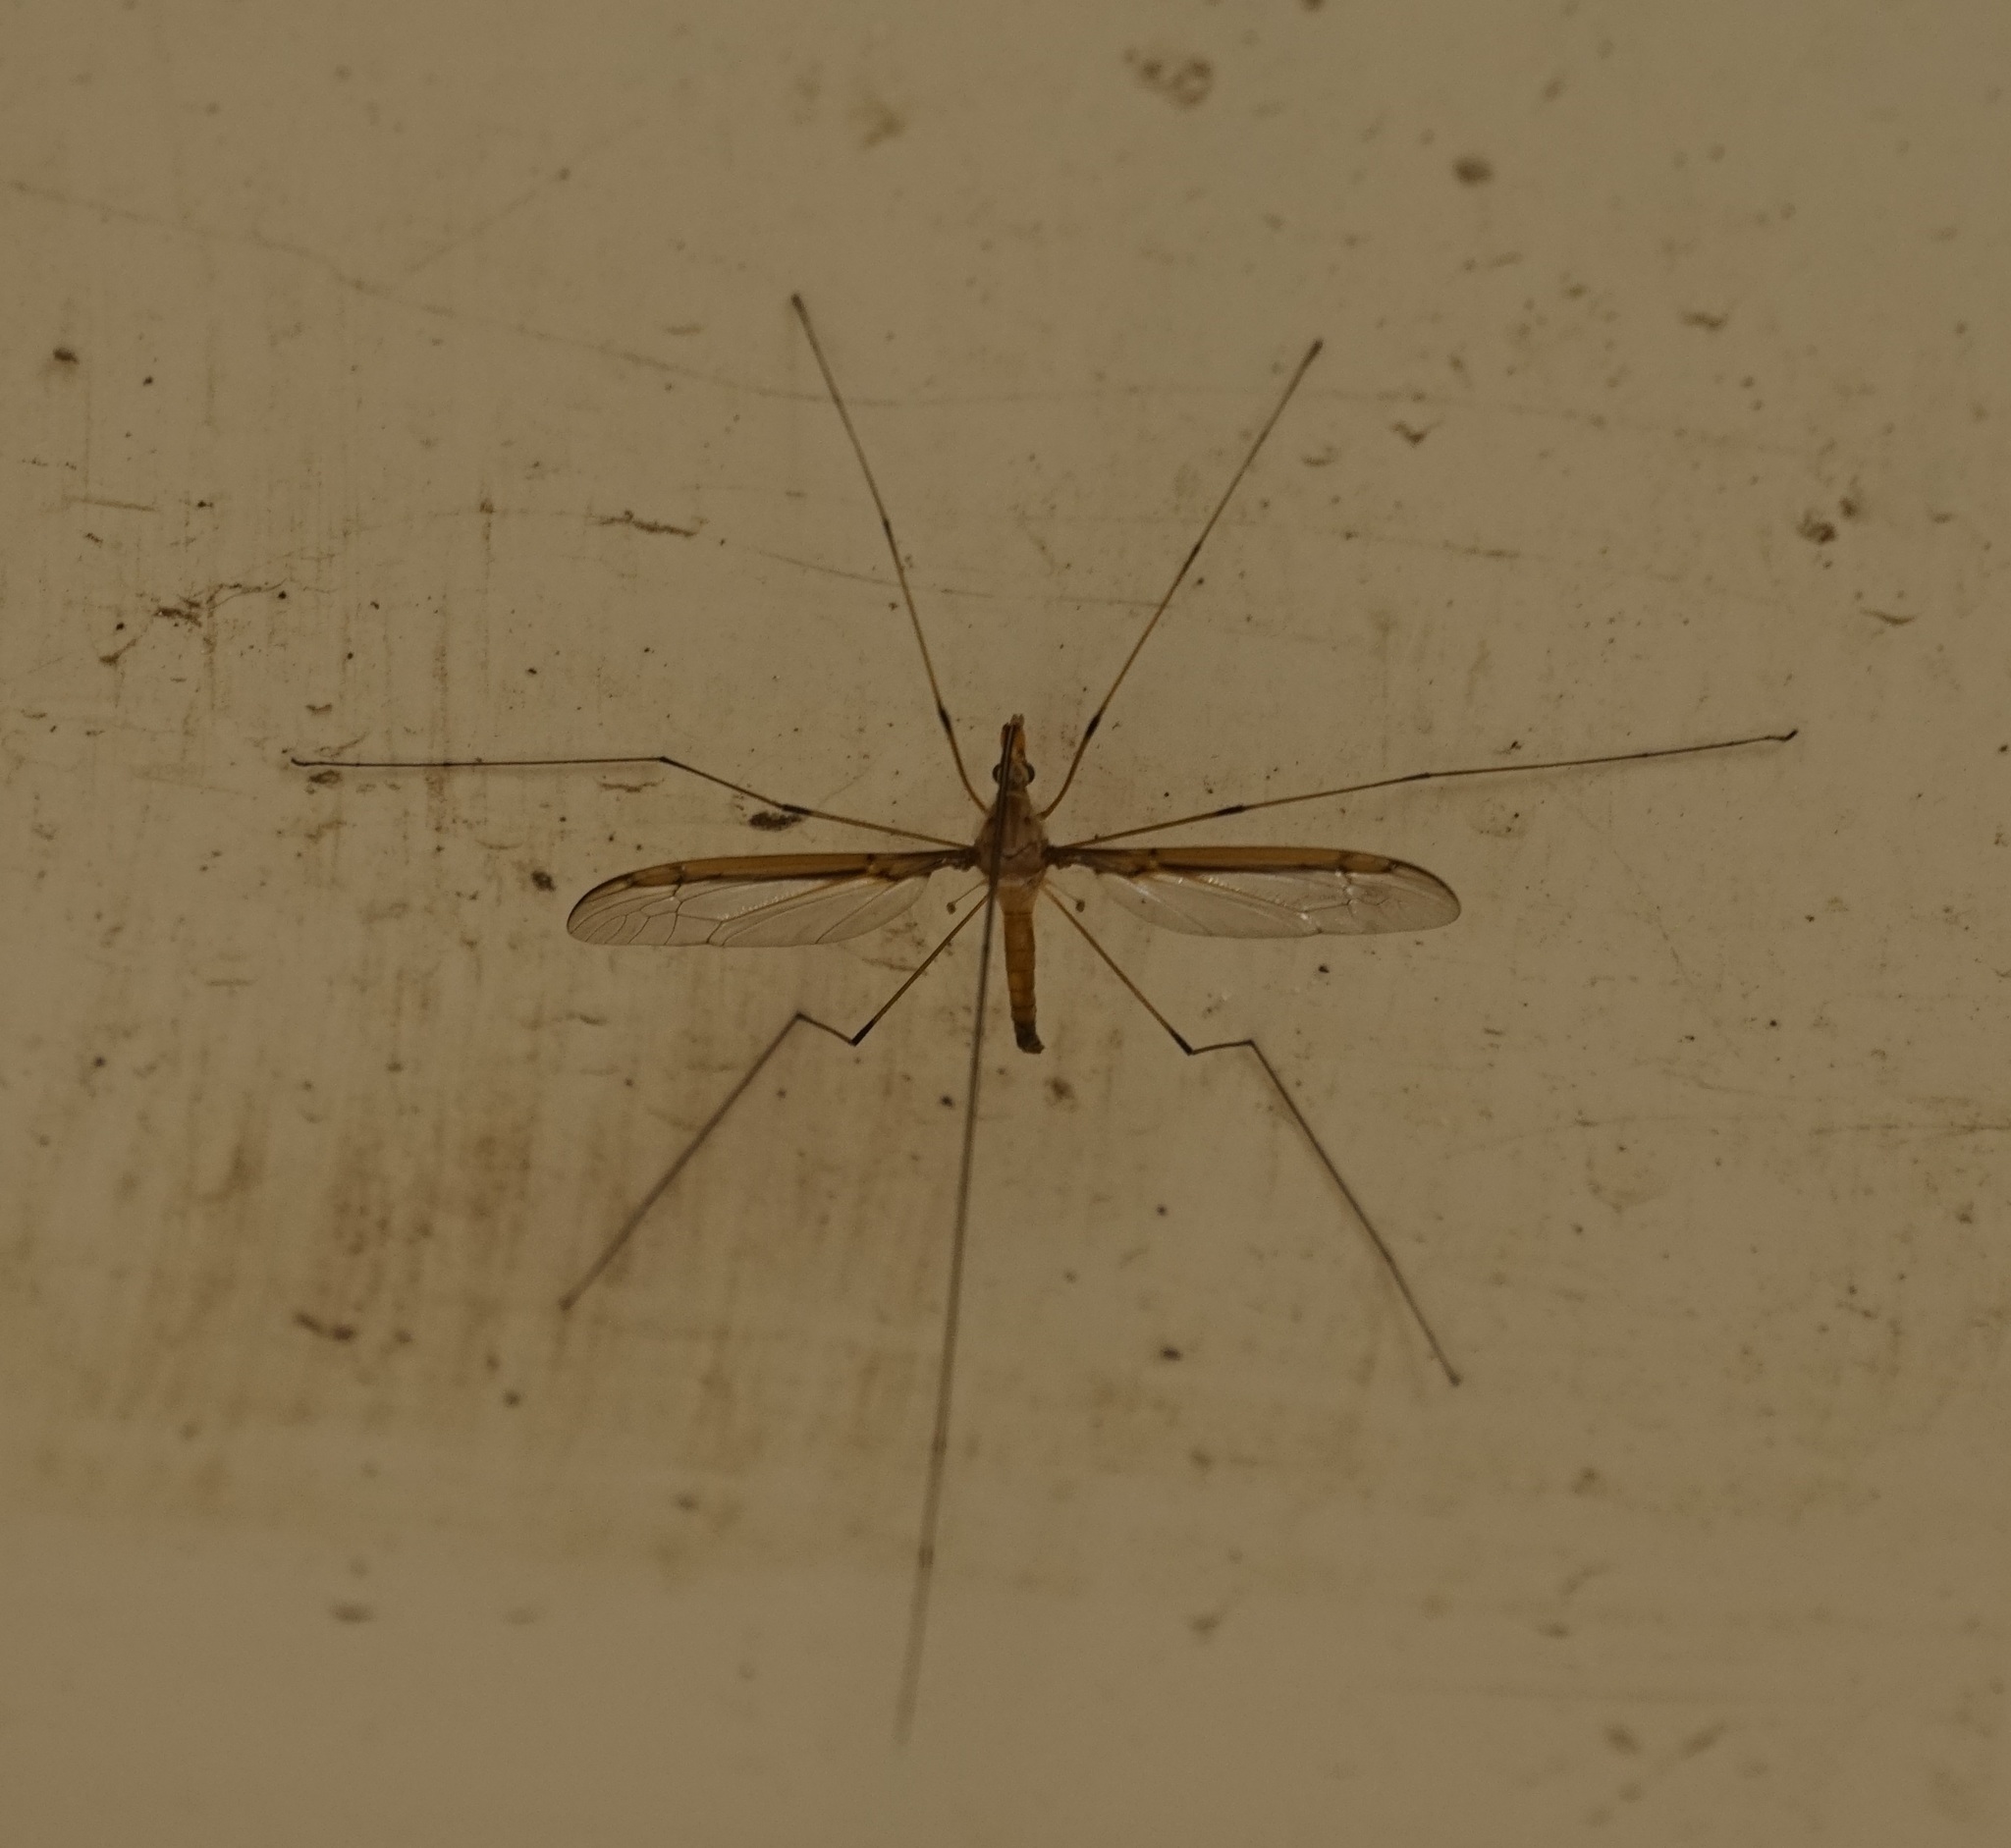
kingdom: Animalia
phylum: Arthropoda
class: Insecta
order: Diptera
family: Tipulidae
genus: Leptotarsus
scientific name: Leptotarsus costalis
